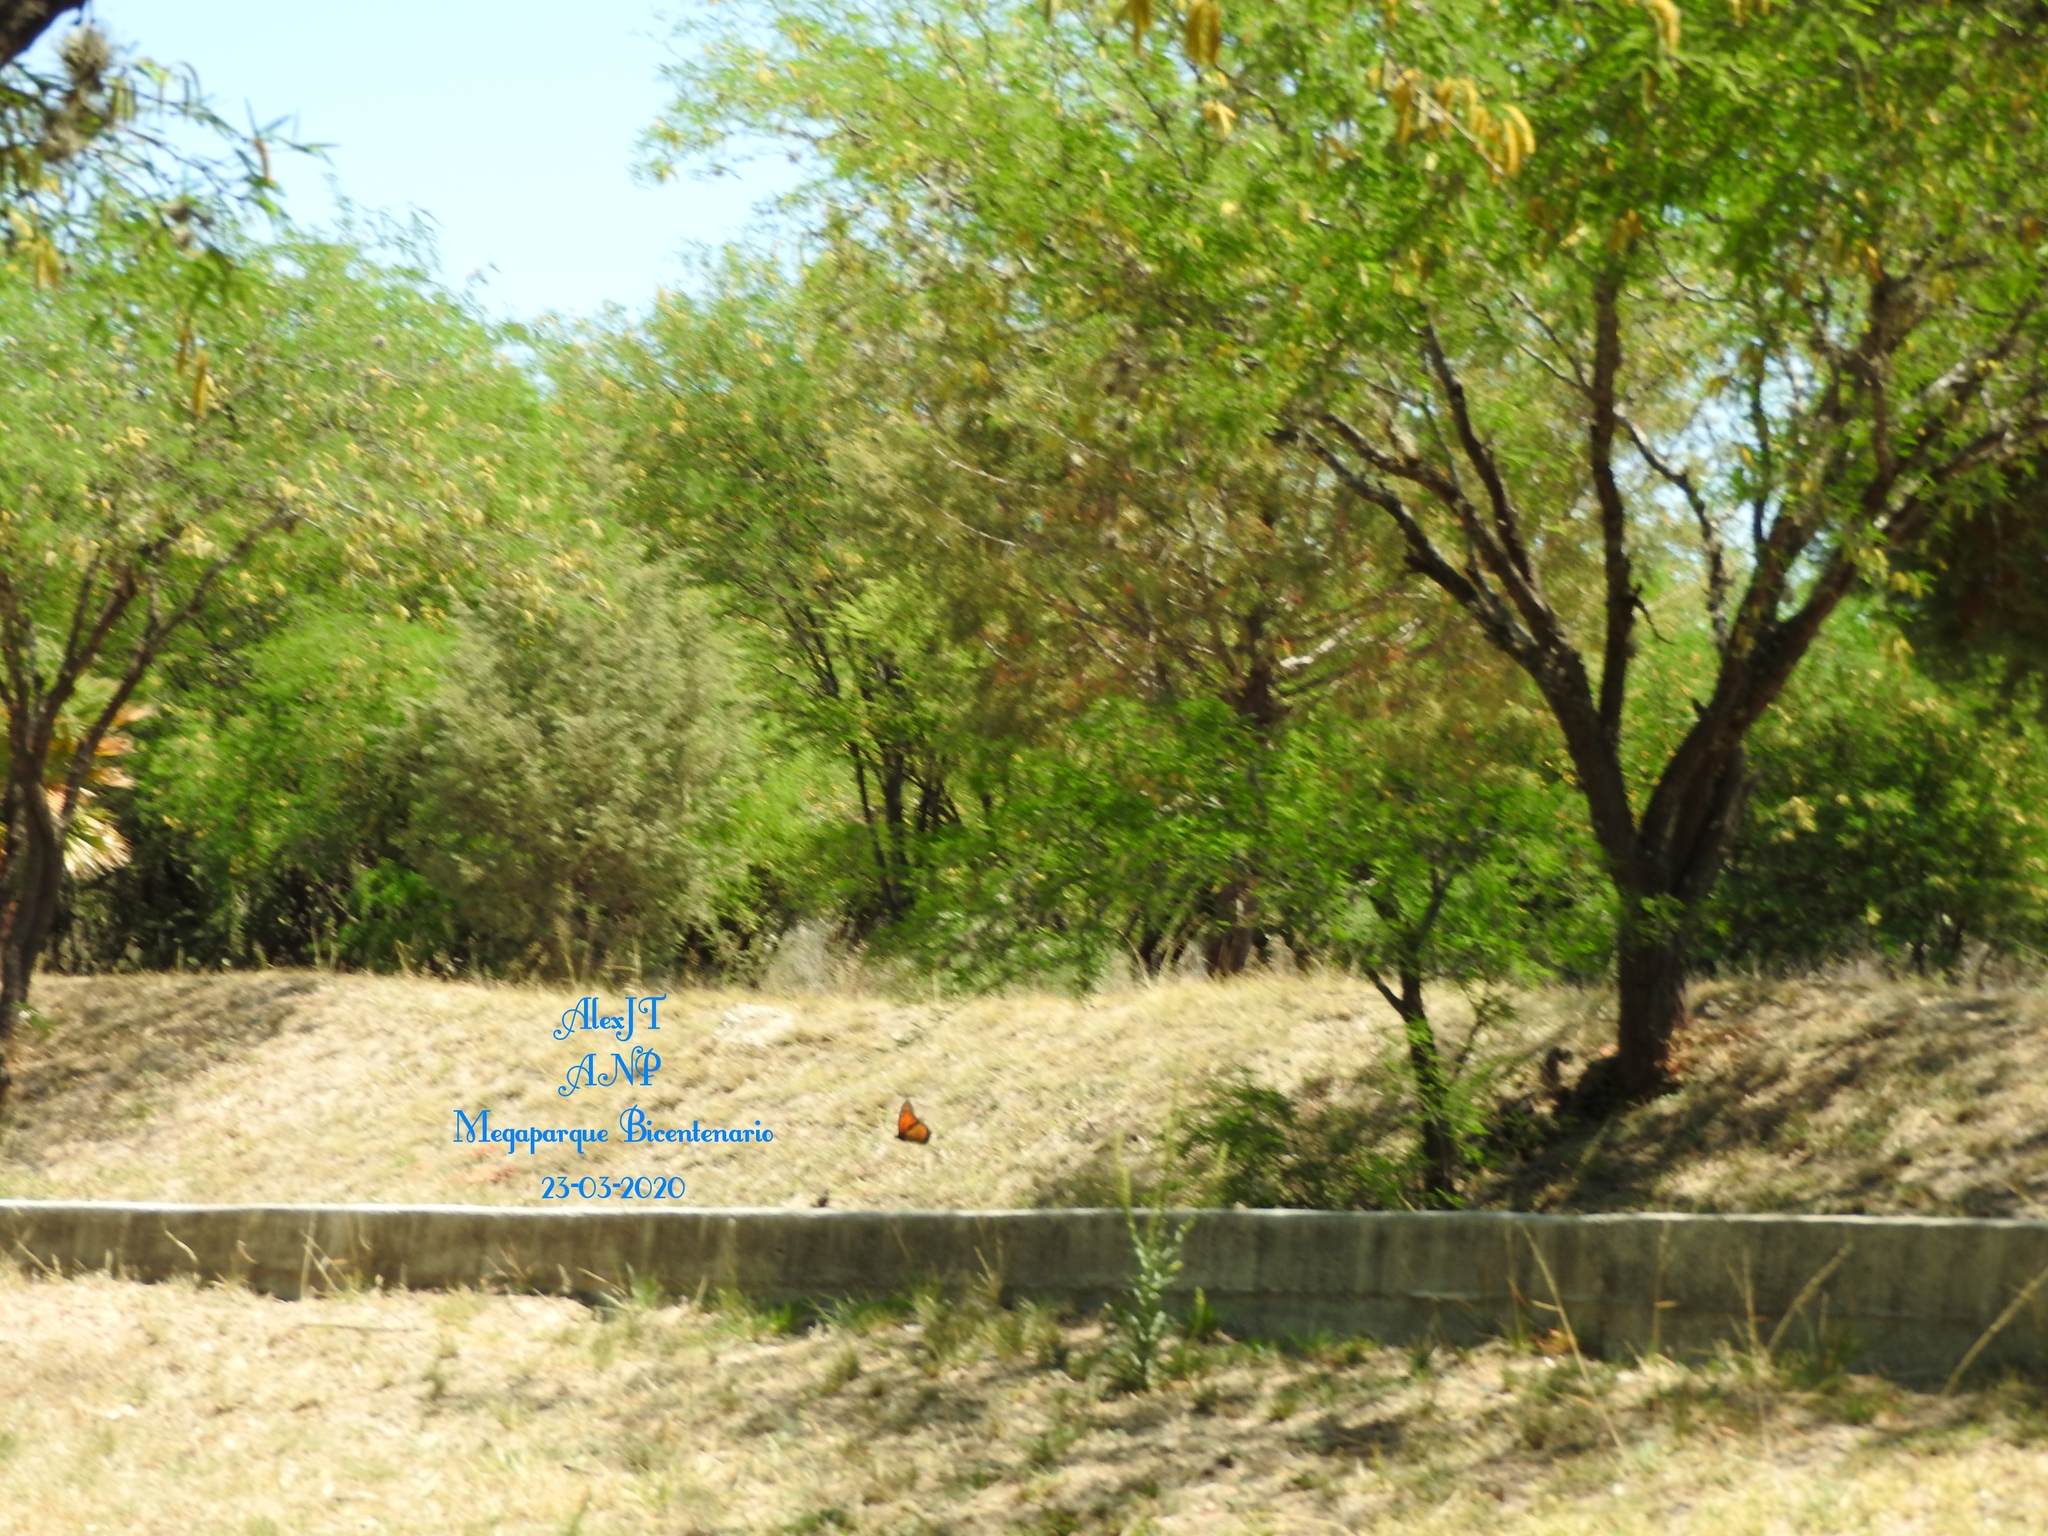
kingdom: Animalia
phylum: Arthropoda
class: Insecta
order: Lepidoptera
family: Nymphalidae
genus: Danaus
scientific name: Danaus plexippus
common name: Monarch
